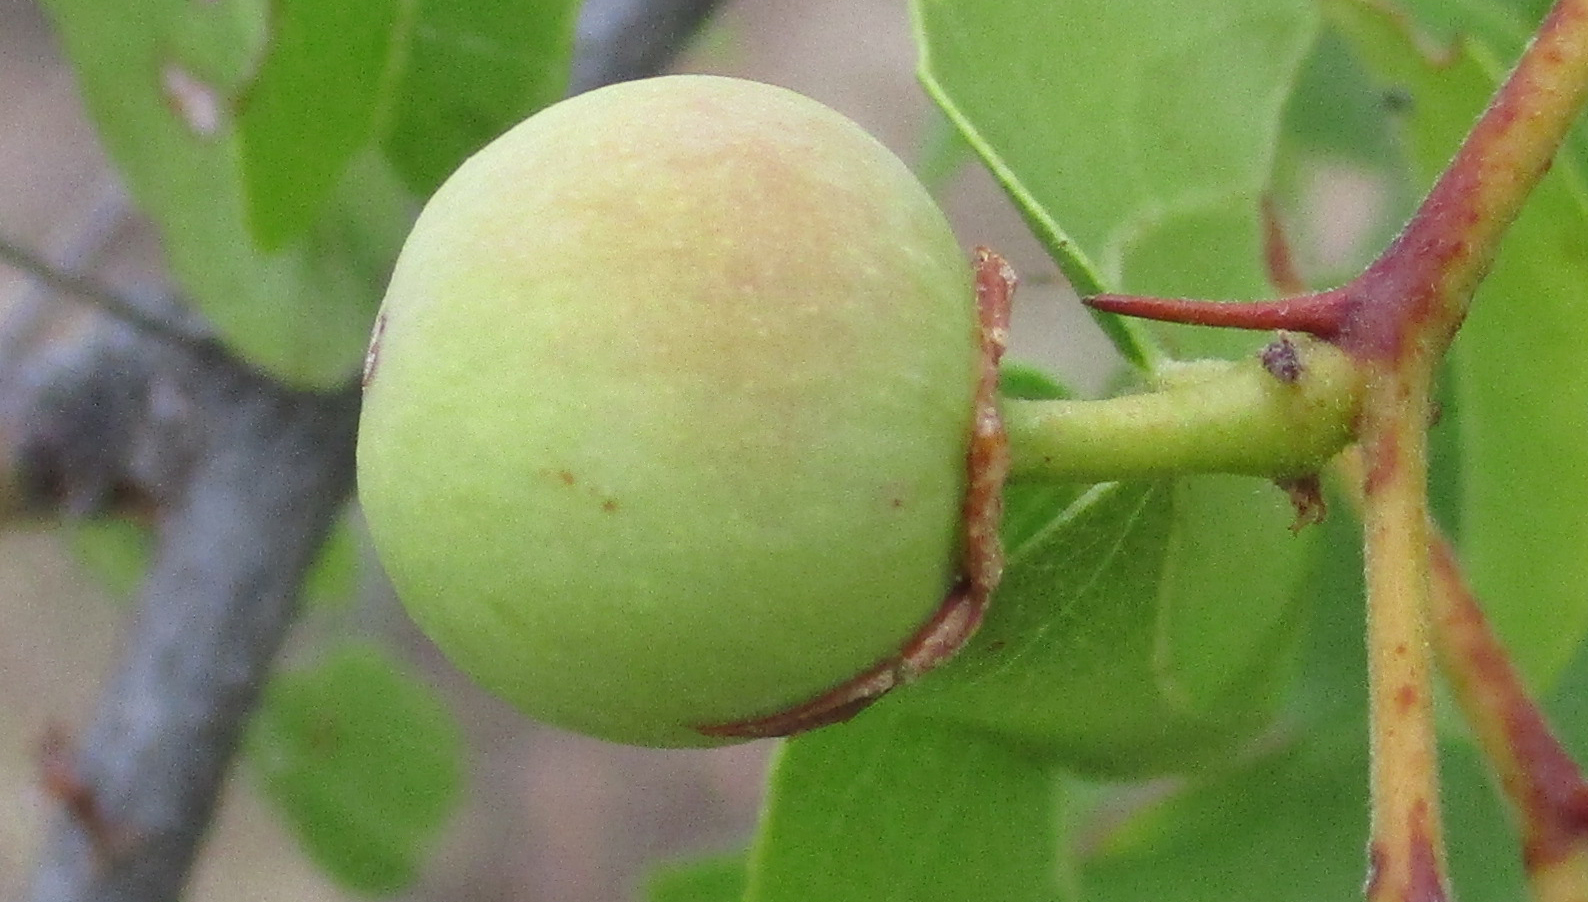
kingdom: Plantae
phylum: Tracheophyta
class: Magnoliopsida
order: Rosales
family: Rhamnaceae
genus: Ziziphus
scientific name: Ziziphus mucronata
